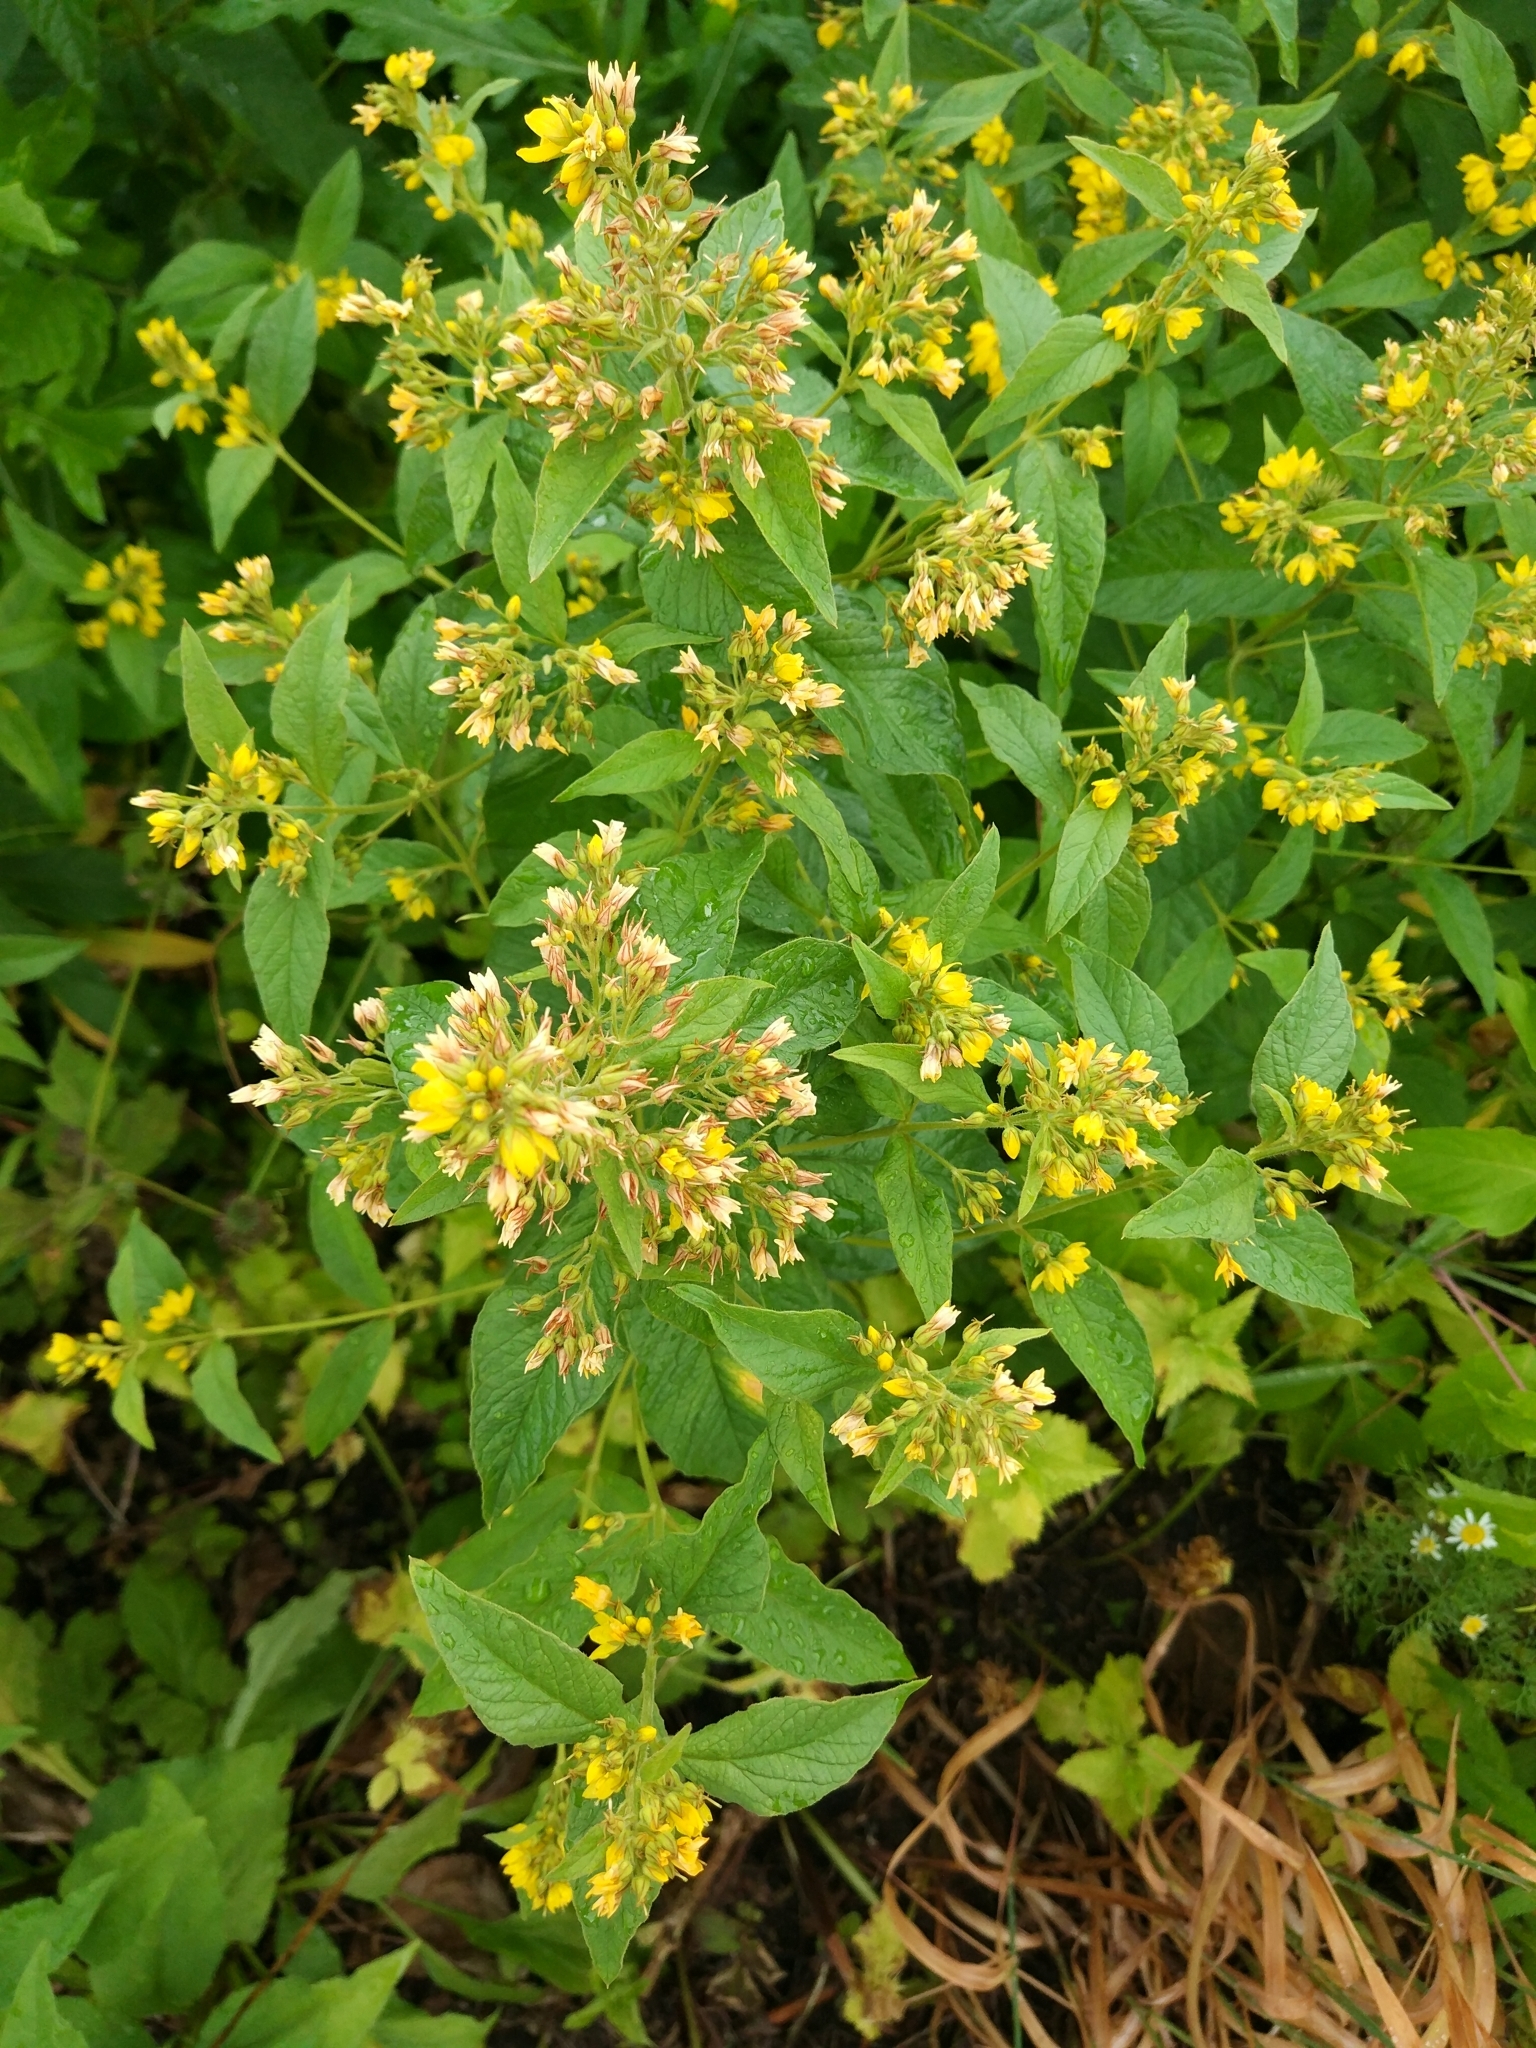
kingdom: Plantae
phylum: Tracheophyta
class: Magnoliopsida
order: Ericales
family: Primulaceae
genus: Lysimachia
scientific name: Lysimachia vulgaris
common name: Yellow loosestrife
